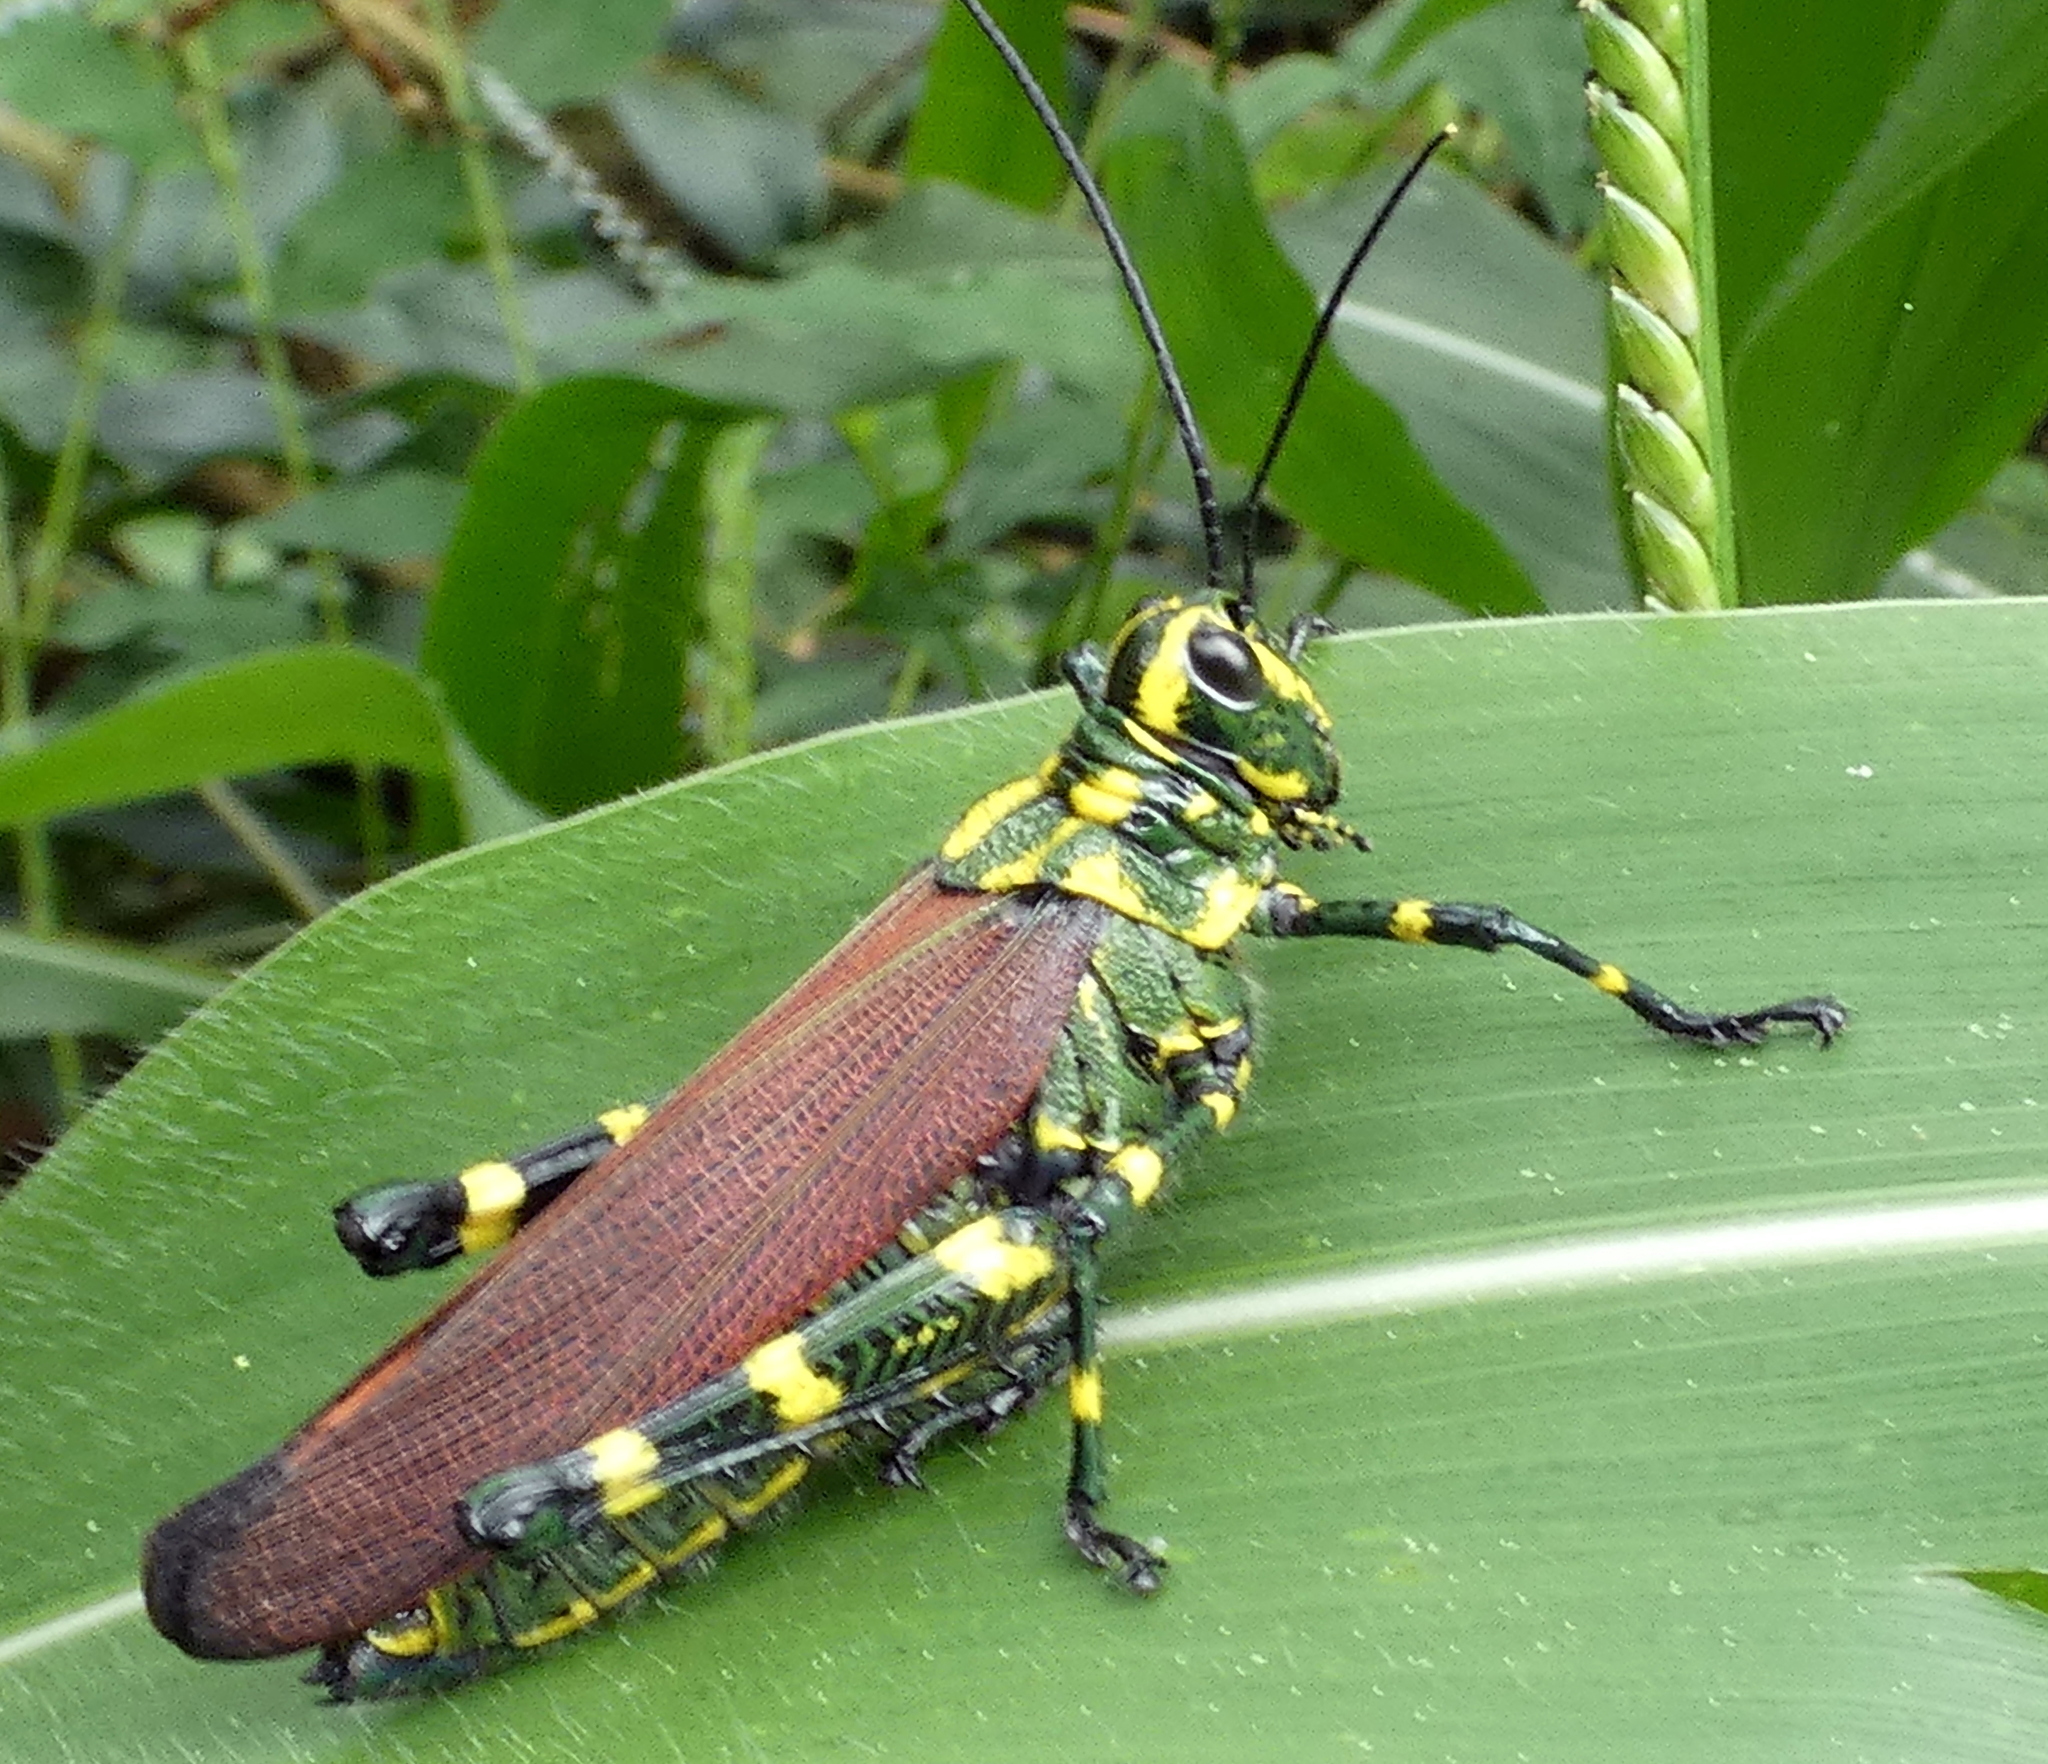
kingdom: Animalia
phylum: Arthropoda
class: Insecta
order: Orthoptera
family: Romaleidae
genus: Chromacris
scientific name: Chromacris speciosa
